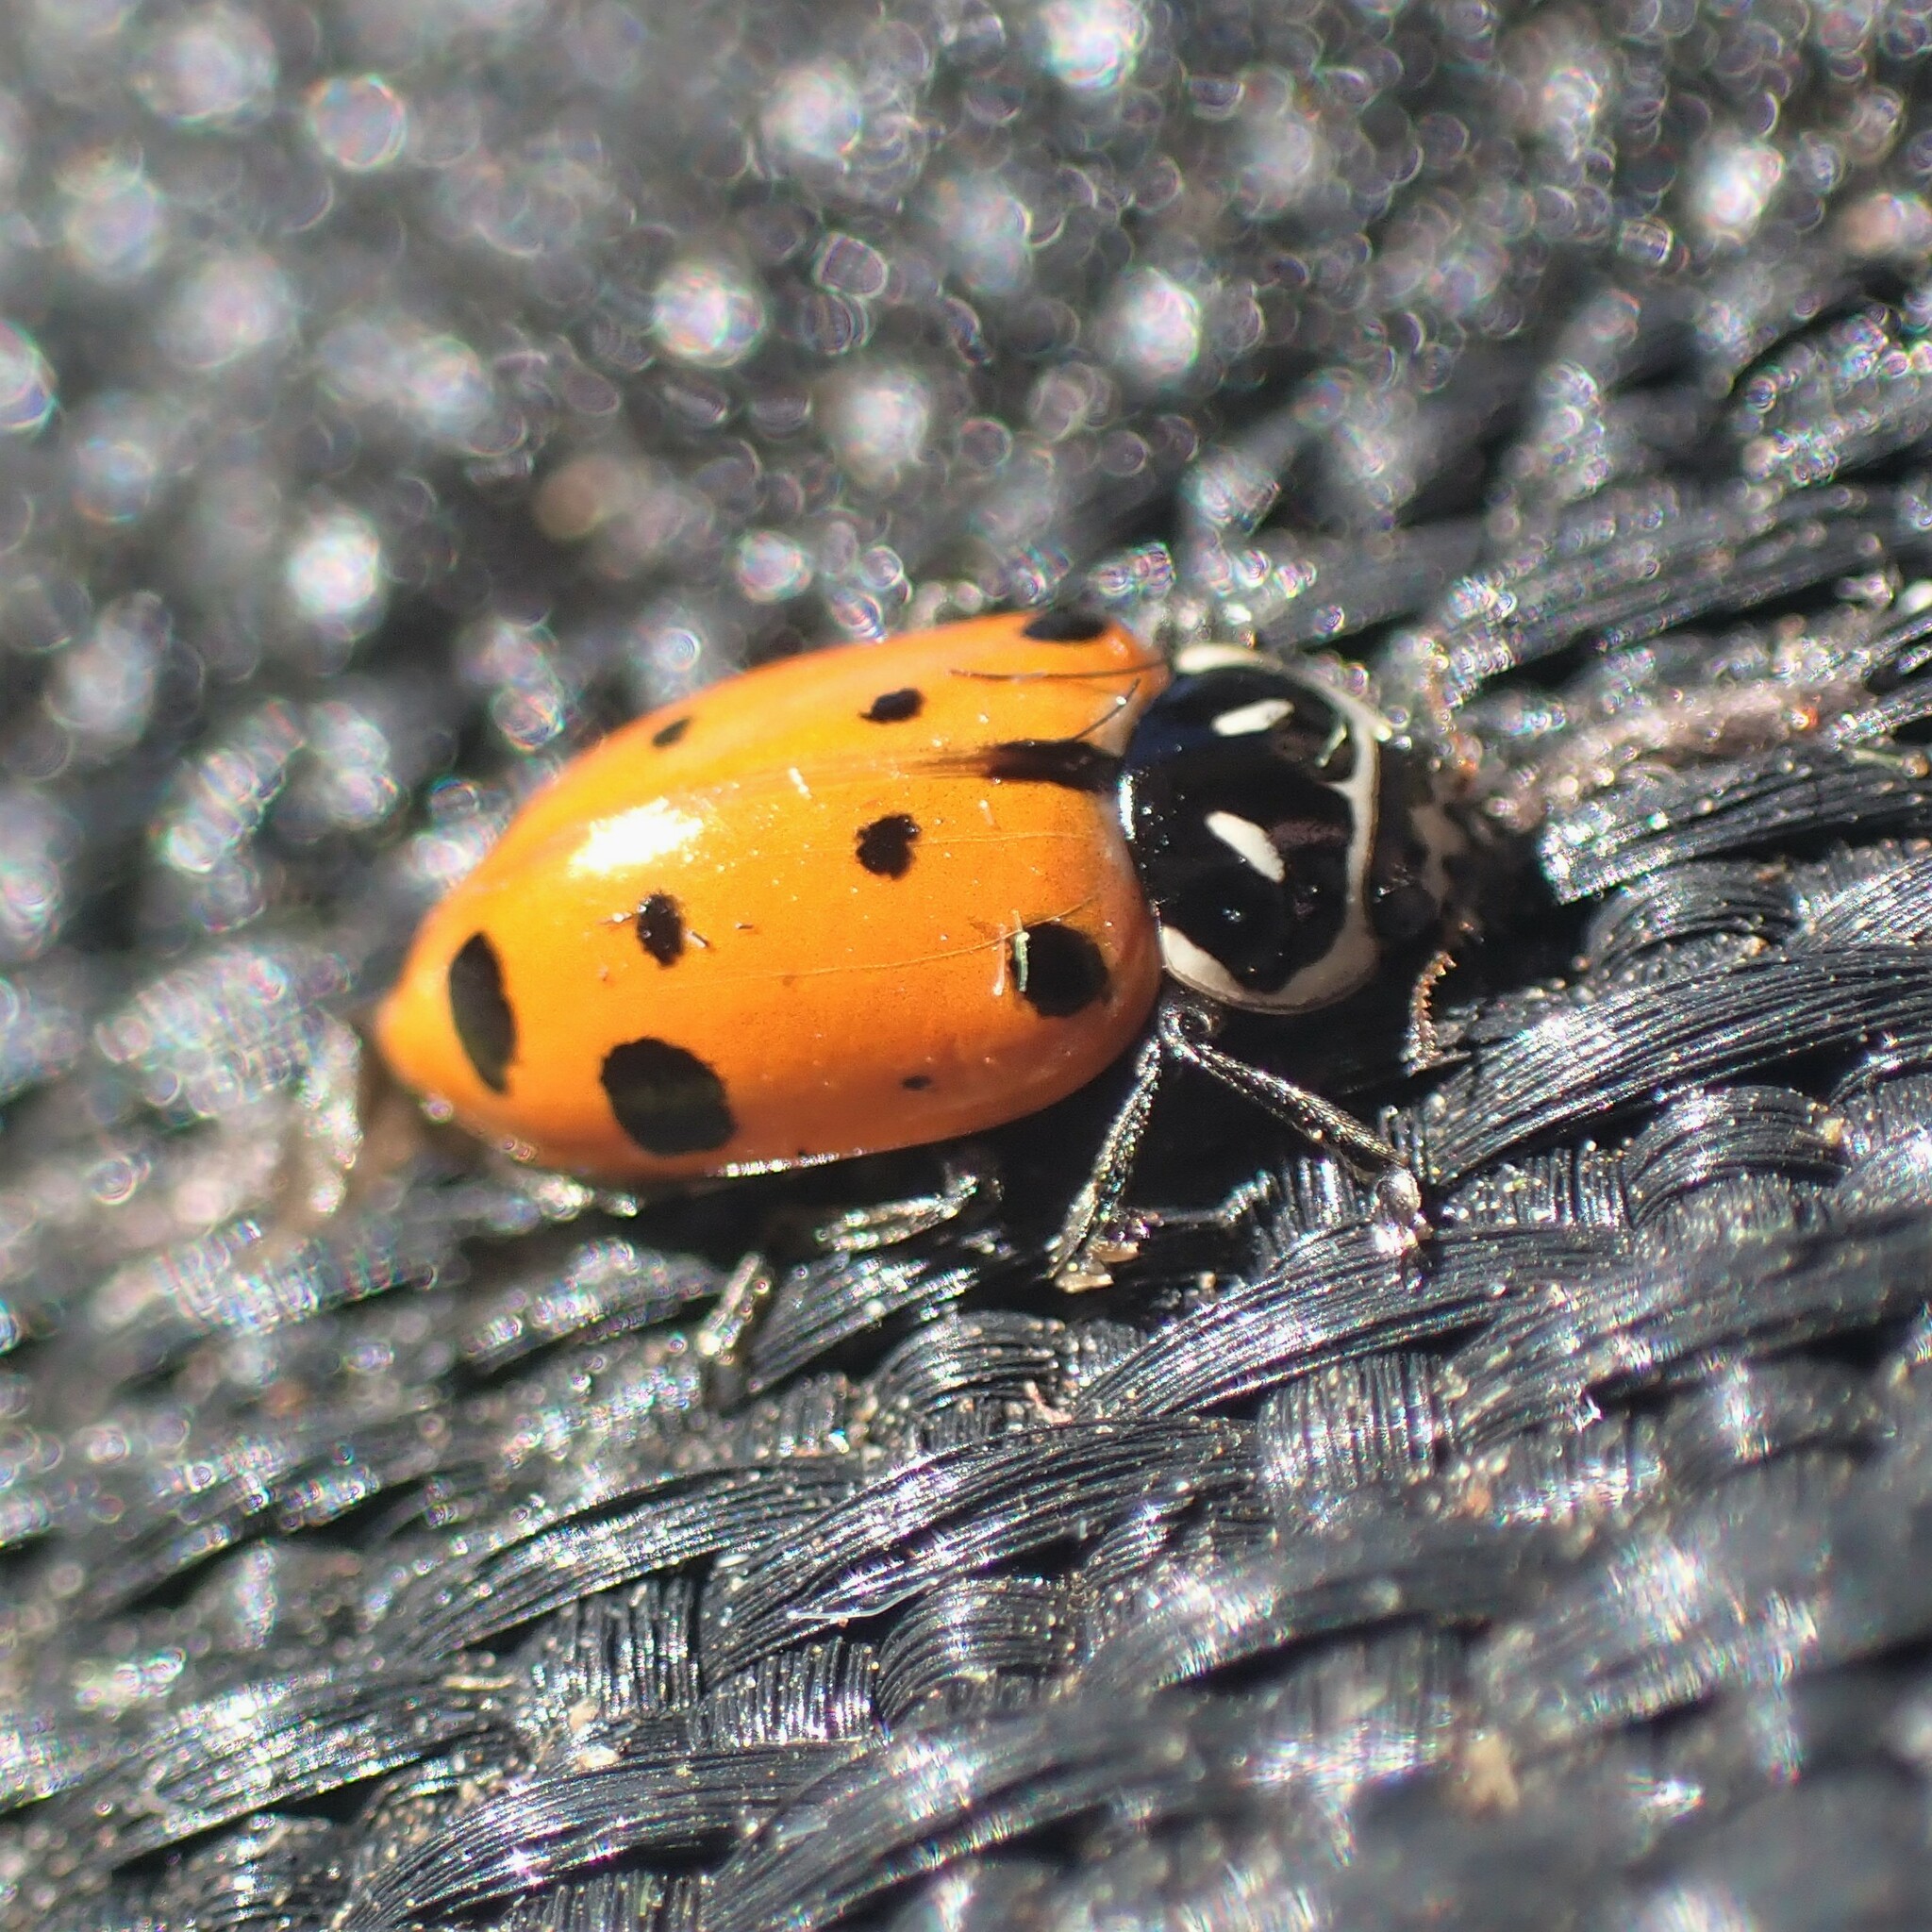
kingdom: Animalia
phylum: Arthropoda
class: Insecta
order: Coleoptera
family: Coccinellidae
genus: Hippodamia
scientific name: Hippodamia convergens
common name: Convergent lady beetle
